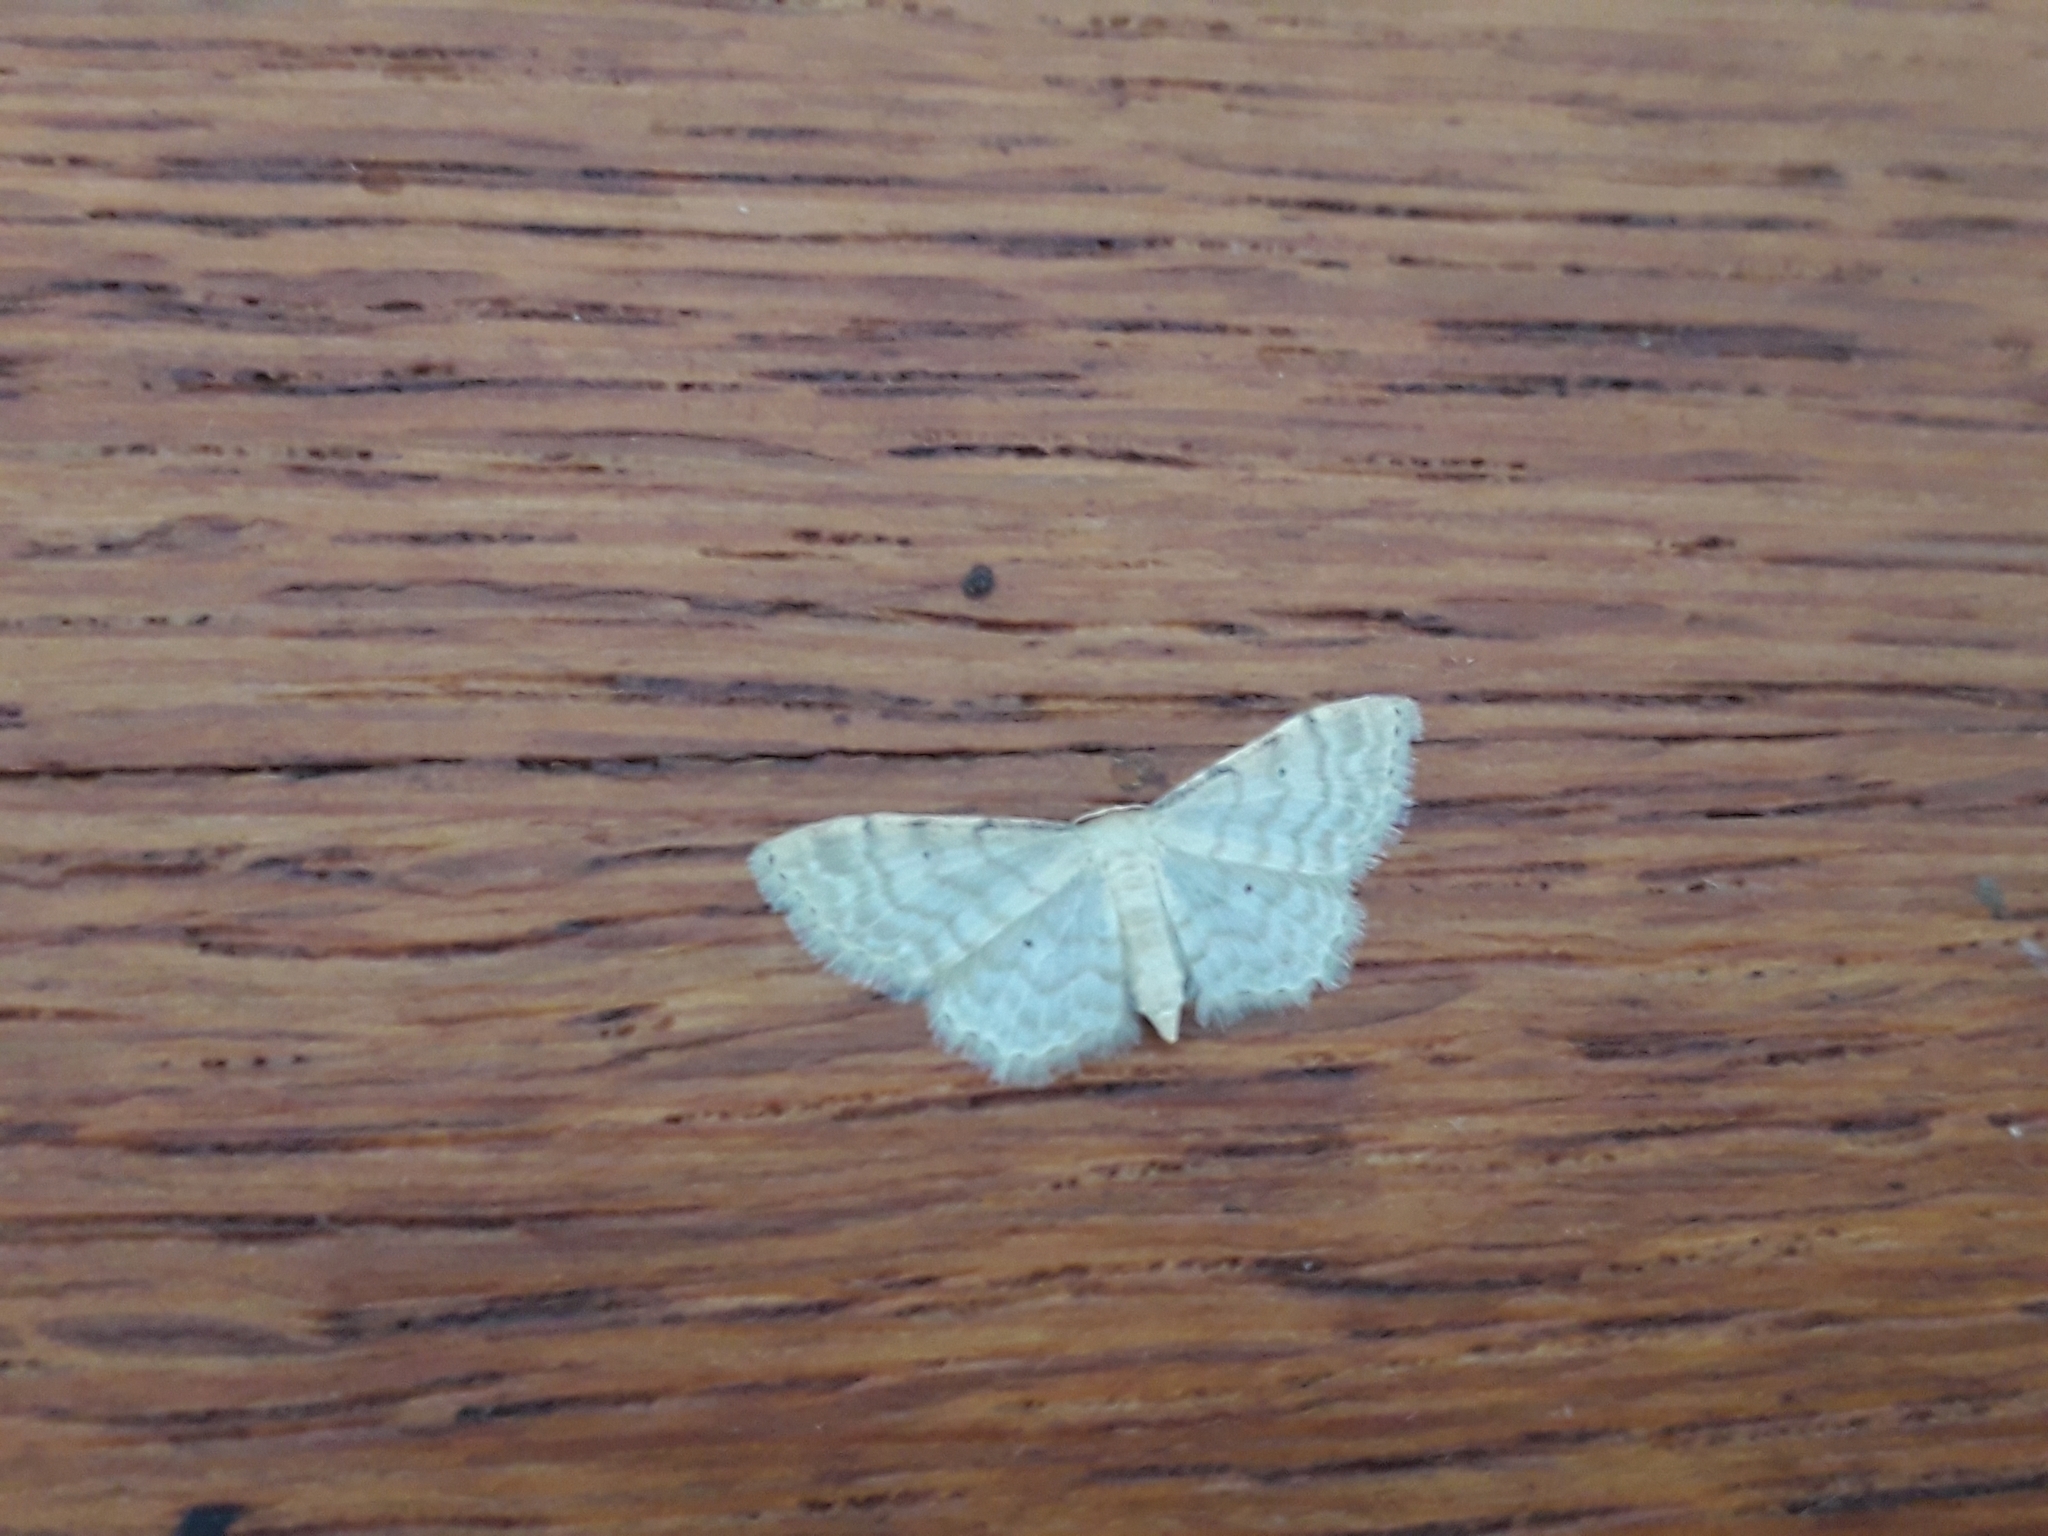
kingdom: Animalia
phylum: Arthropoda
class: Insecta
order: Lepidoptera
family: Geometridae
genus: Idaea
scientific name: Idaea fuscovenosa
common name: Dwarf cream wave
